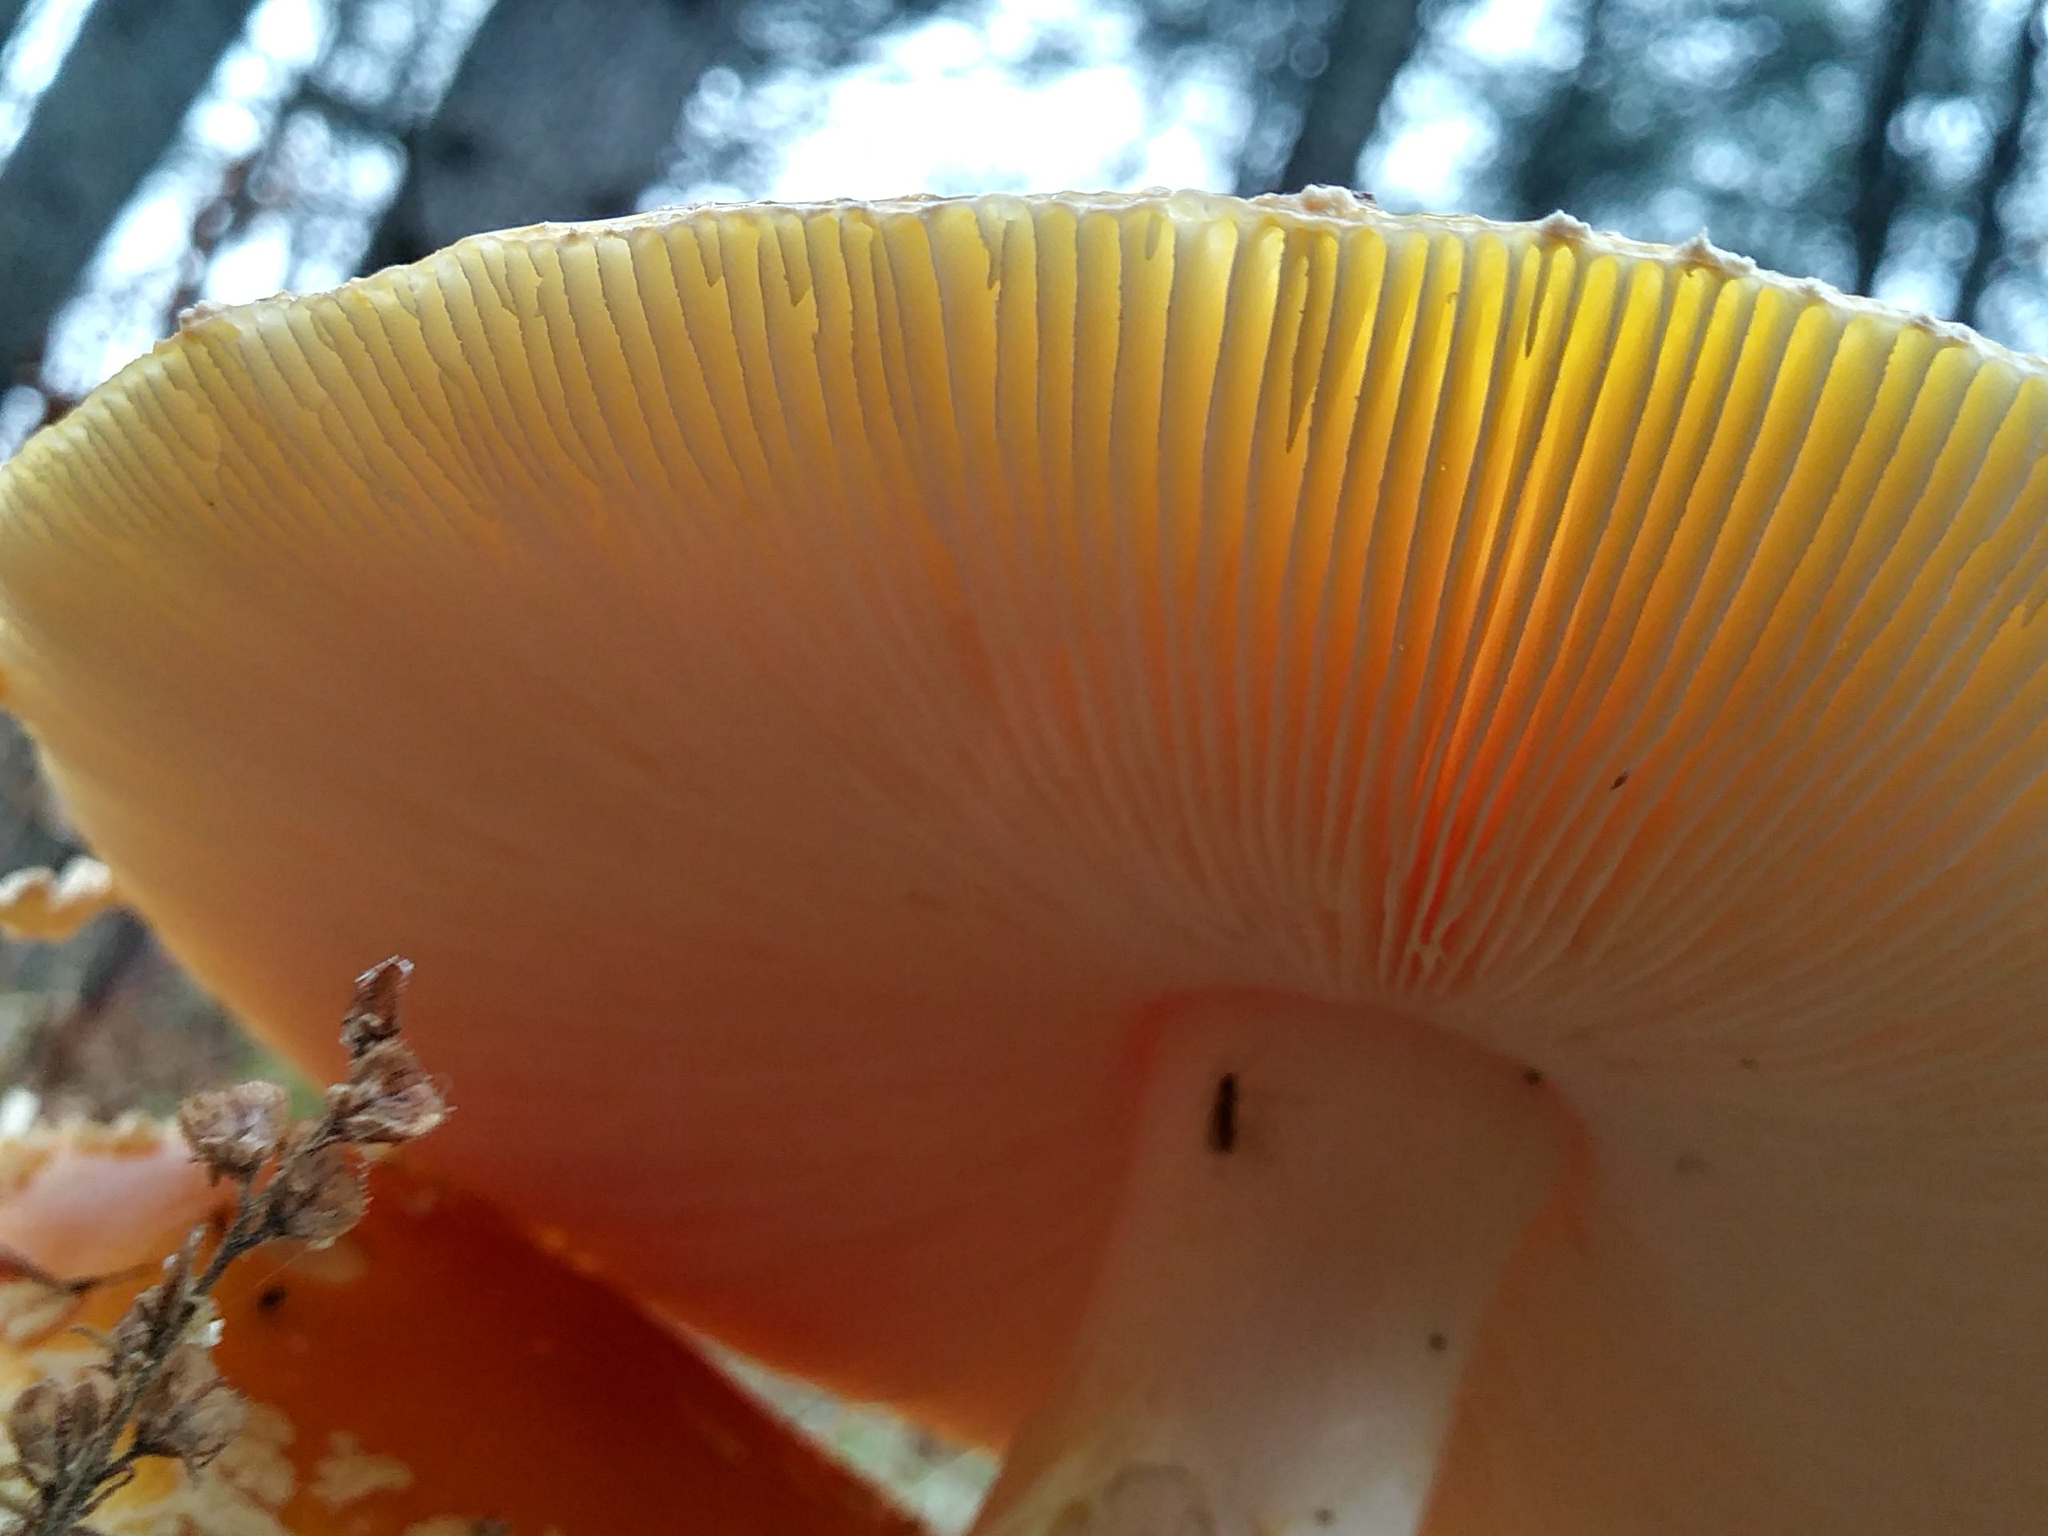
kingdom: Fungi
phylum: Basidiomycota
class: Agaricomycetes
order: Agaricales
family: Amanitaceae
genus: Amanita
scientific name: Amanita muscaria
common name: Fly agaric
